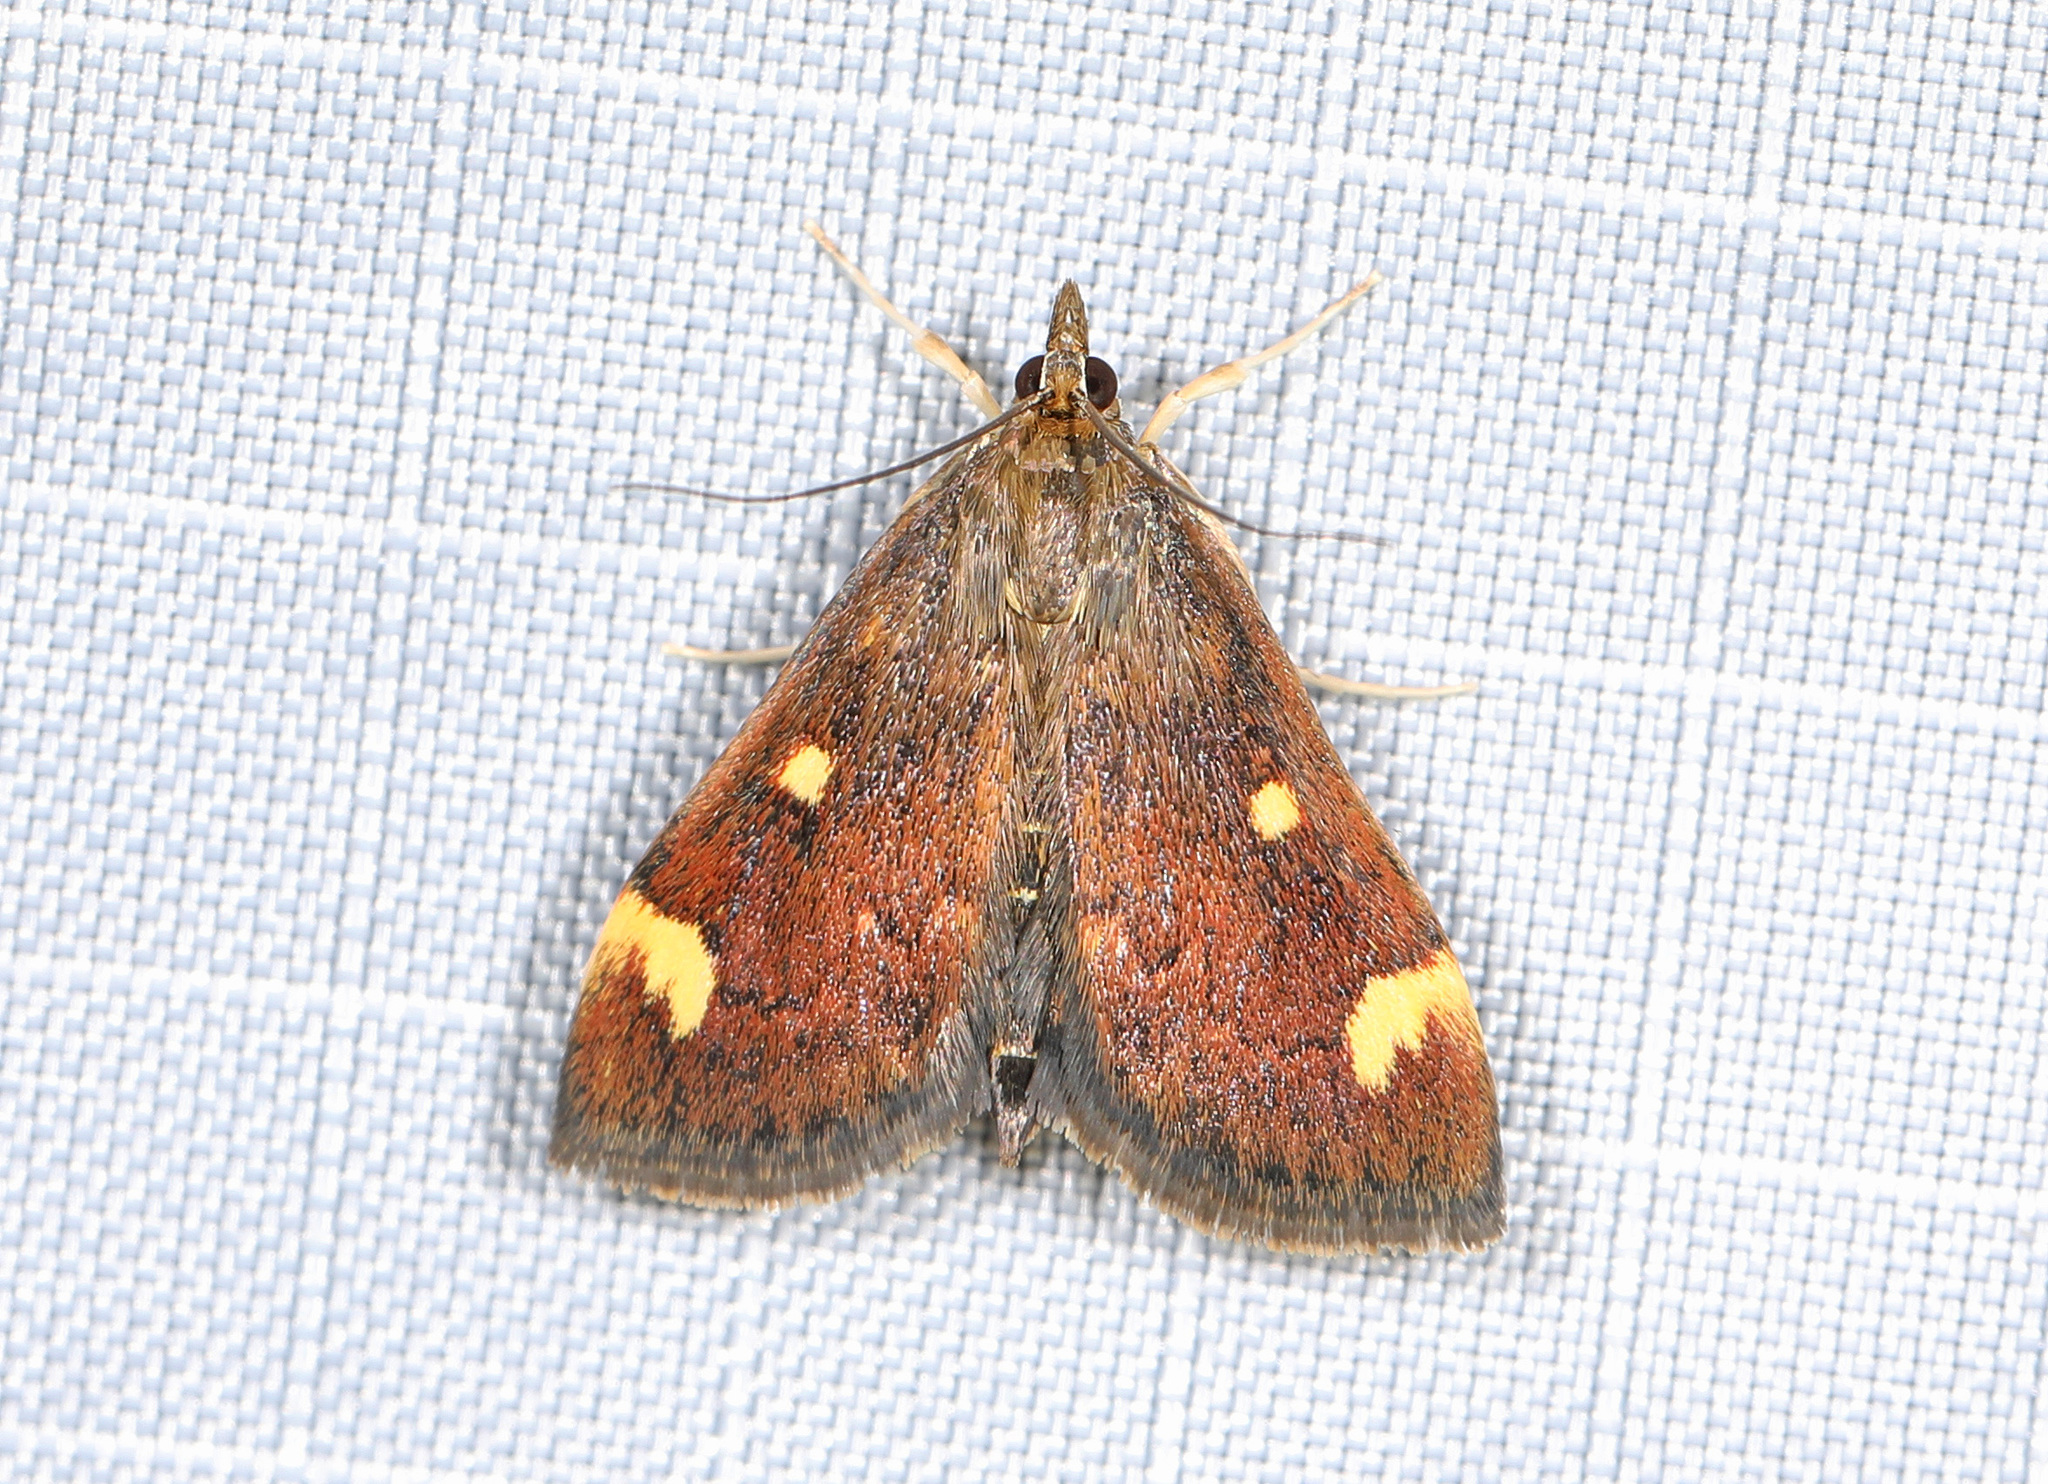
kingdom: Animalia
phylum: Arthropoda
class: Insecta
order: Lepidoptera
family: Crambidae
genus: Pyrausta
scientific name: Pyrausta generosa
